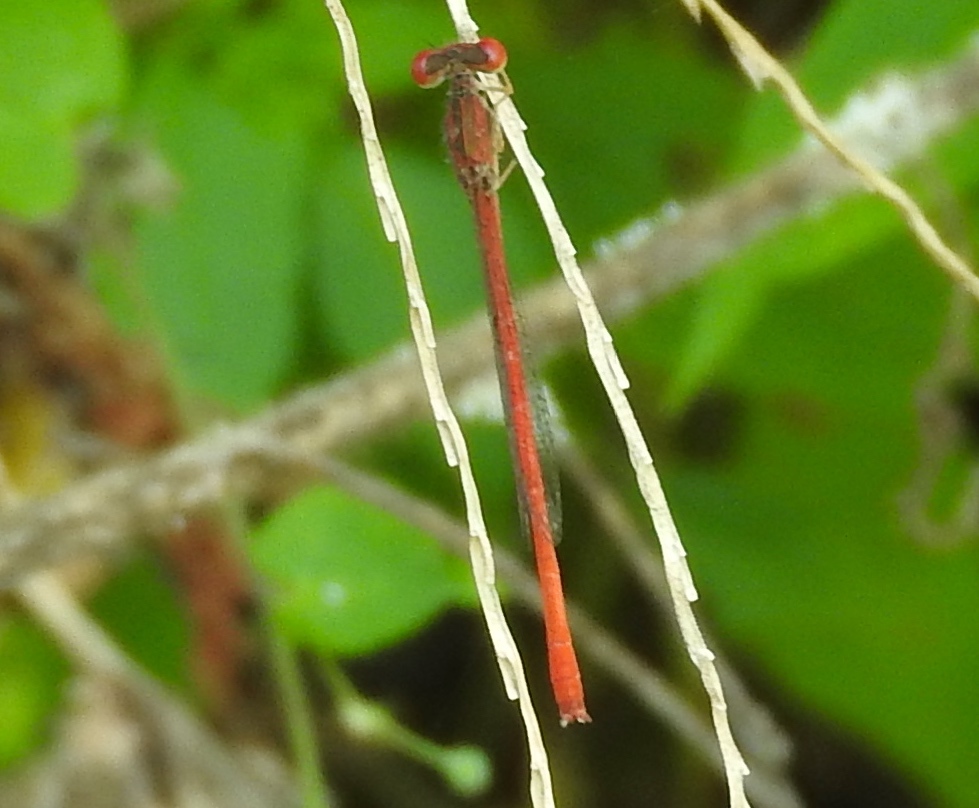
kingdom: Animalia
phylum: Arthropoda
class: Insecta
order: Odonata
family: Coenagrionidae
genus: Telebasis
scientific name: Telebasis
